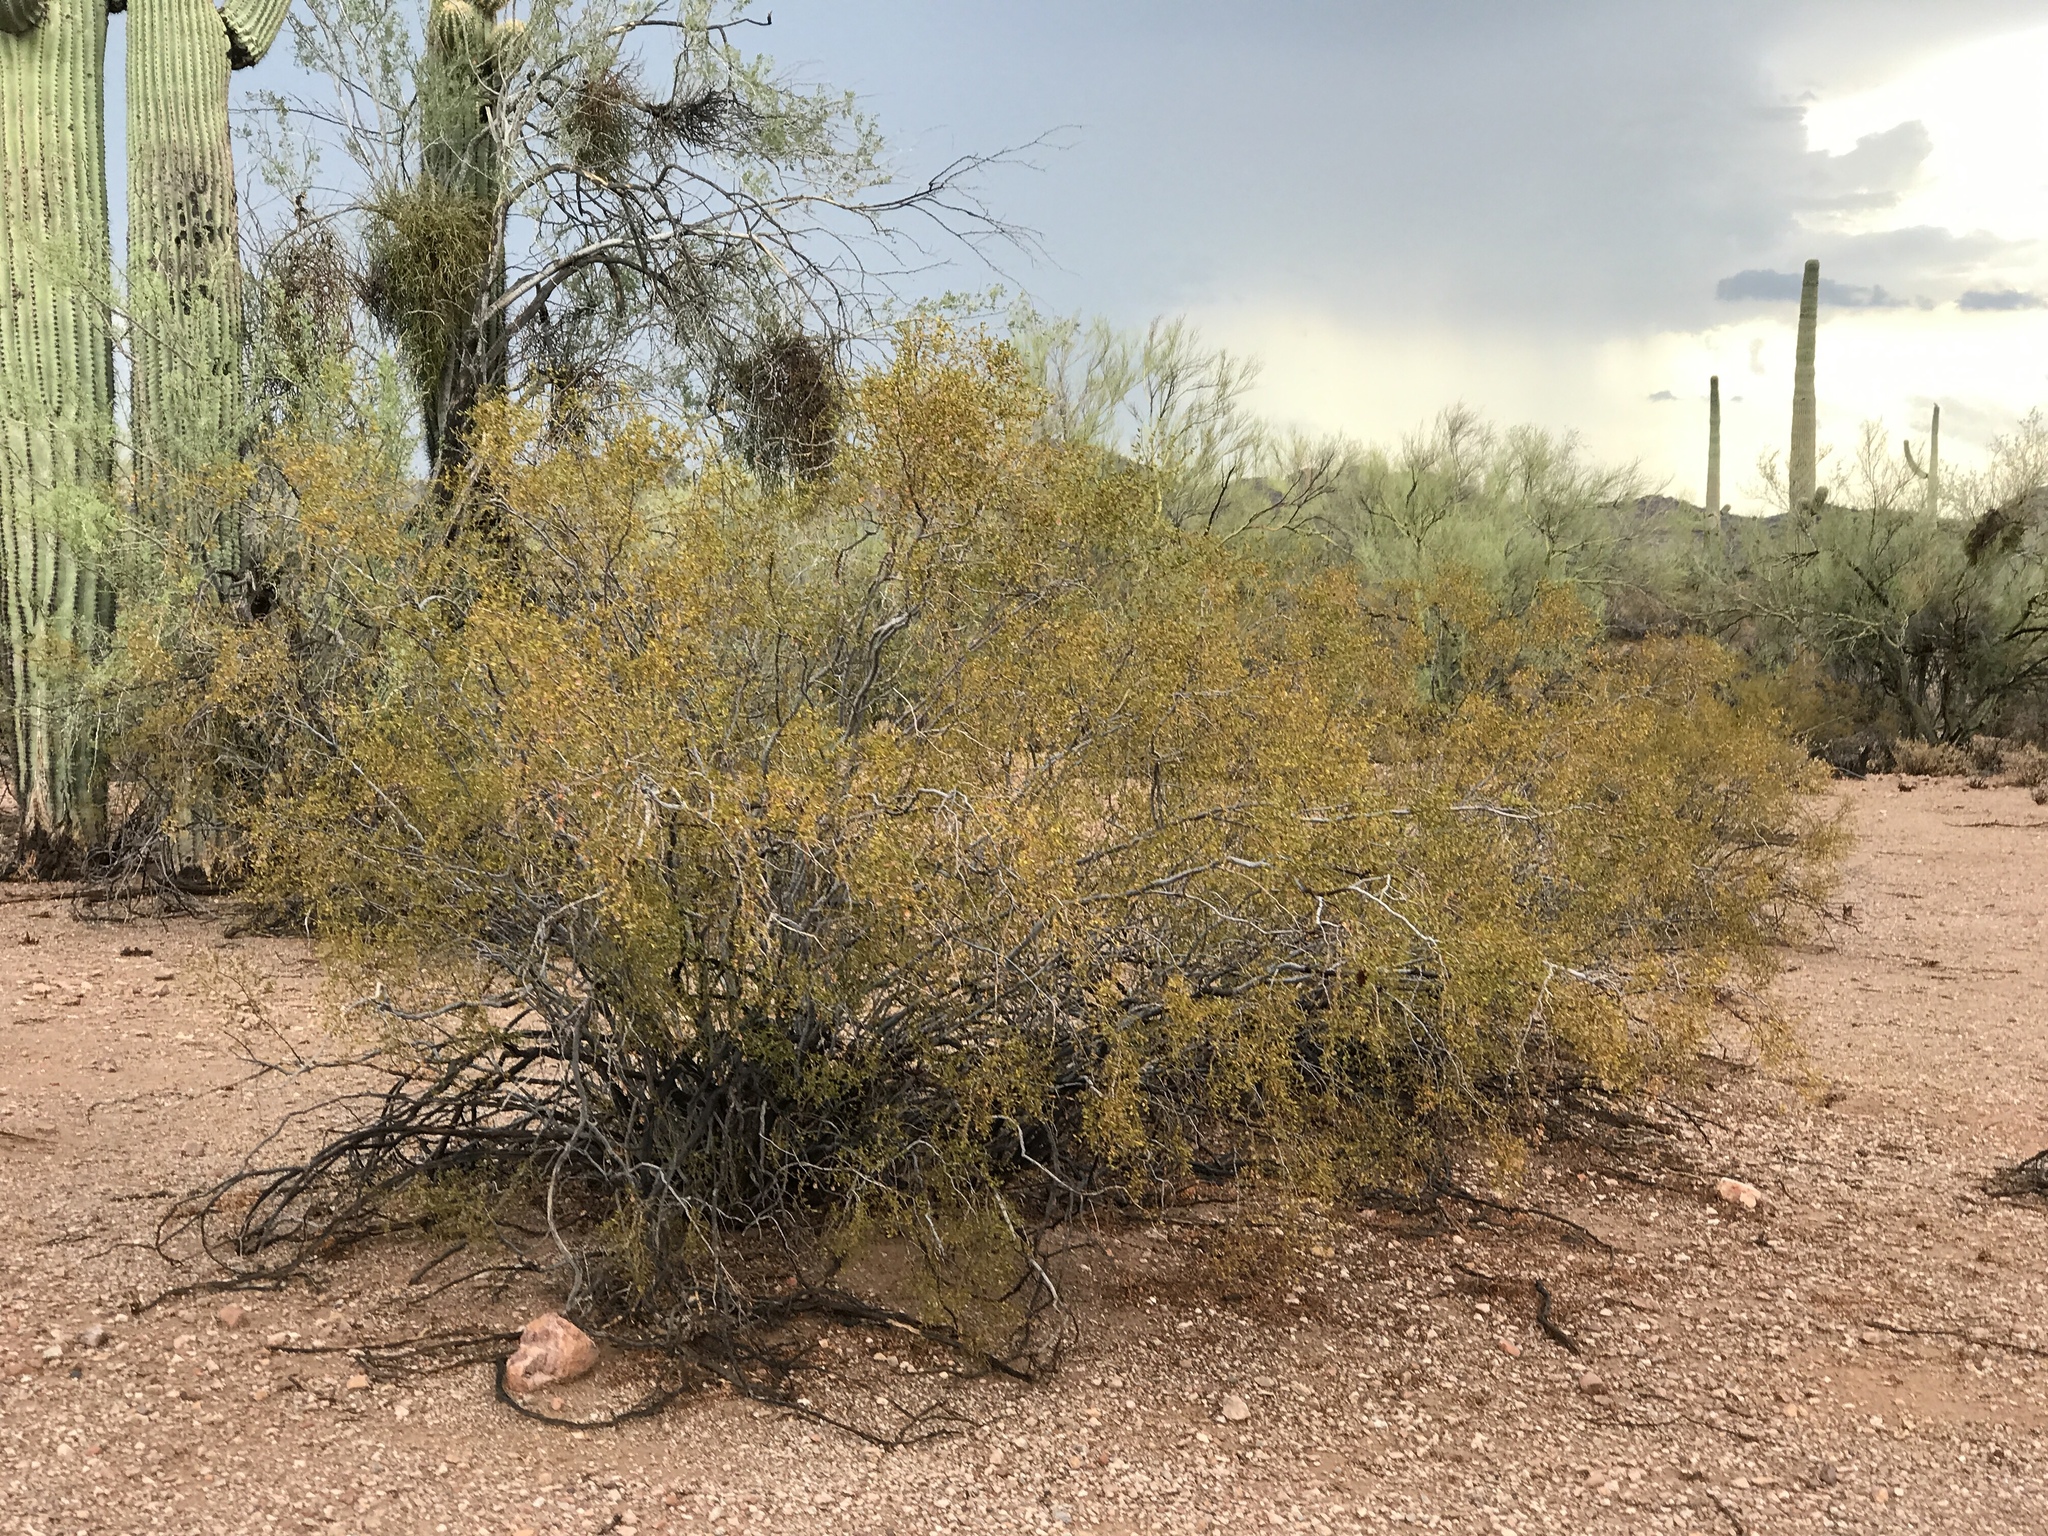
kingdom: Plantae
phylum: Tracheophyta
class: Magnoliopsida
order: Zygophyllales
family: Zygophyllaceae
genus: Larrea
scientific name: Larrea tridentata
